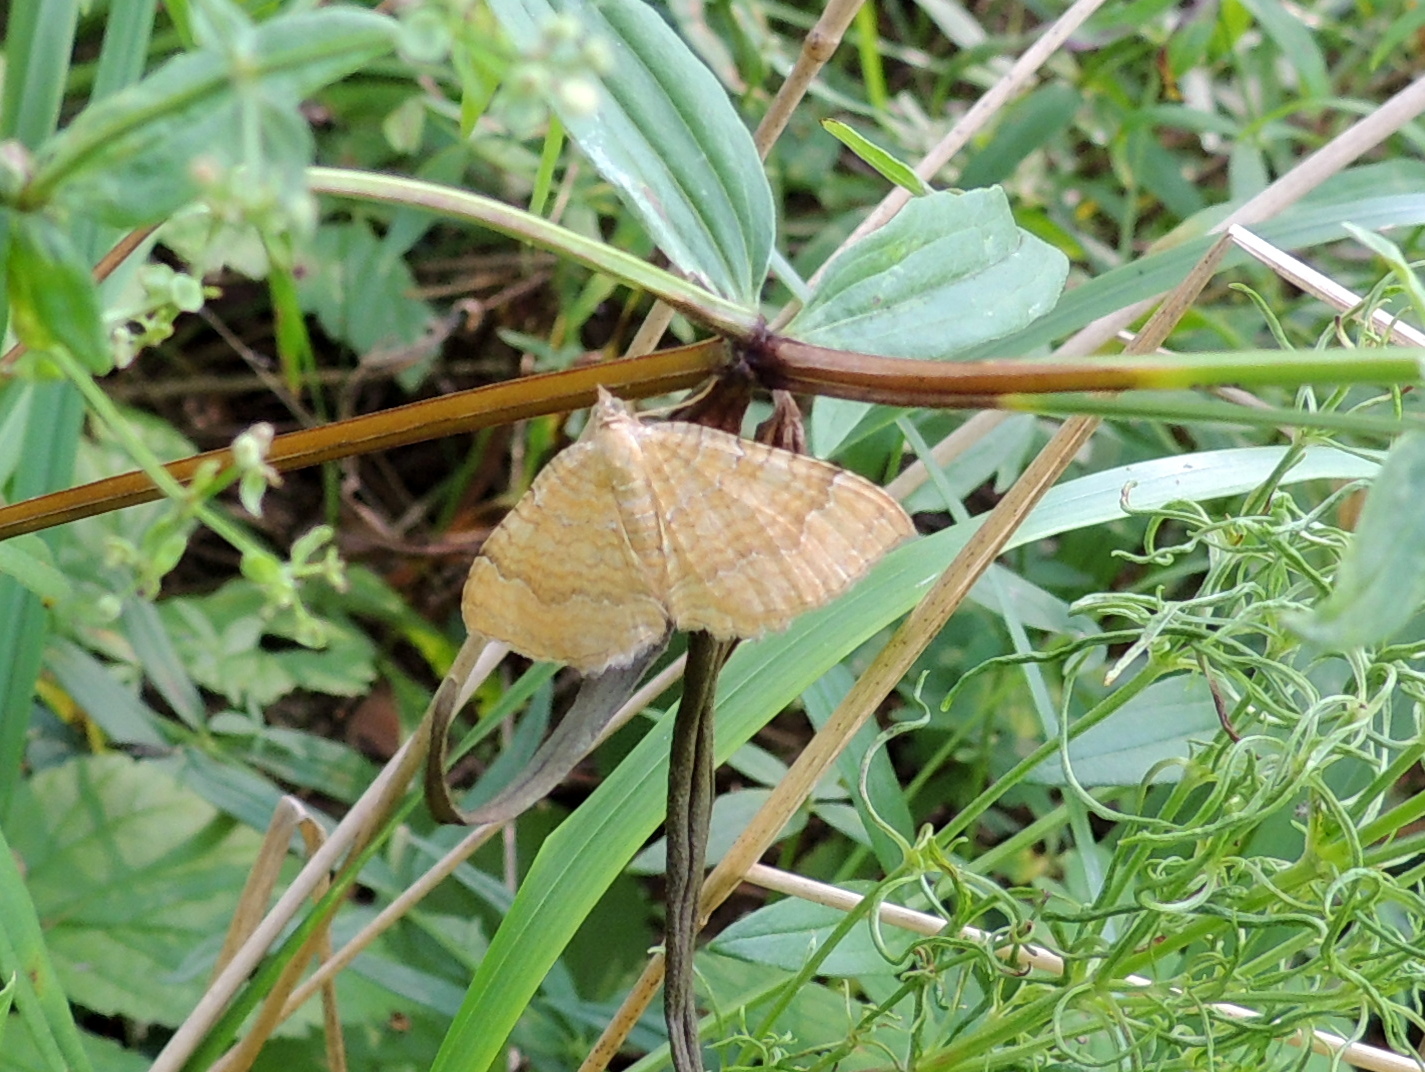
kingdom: Animalia
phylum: Arthropoda
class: Insecta
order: Lepidoptera
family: Geometridae
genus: Camptogramma
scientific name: Camptogramma bilineata
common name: Yellow shell
